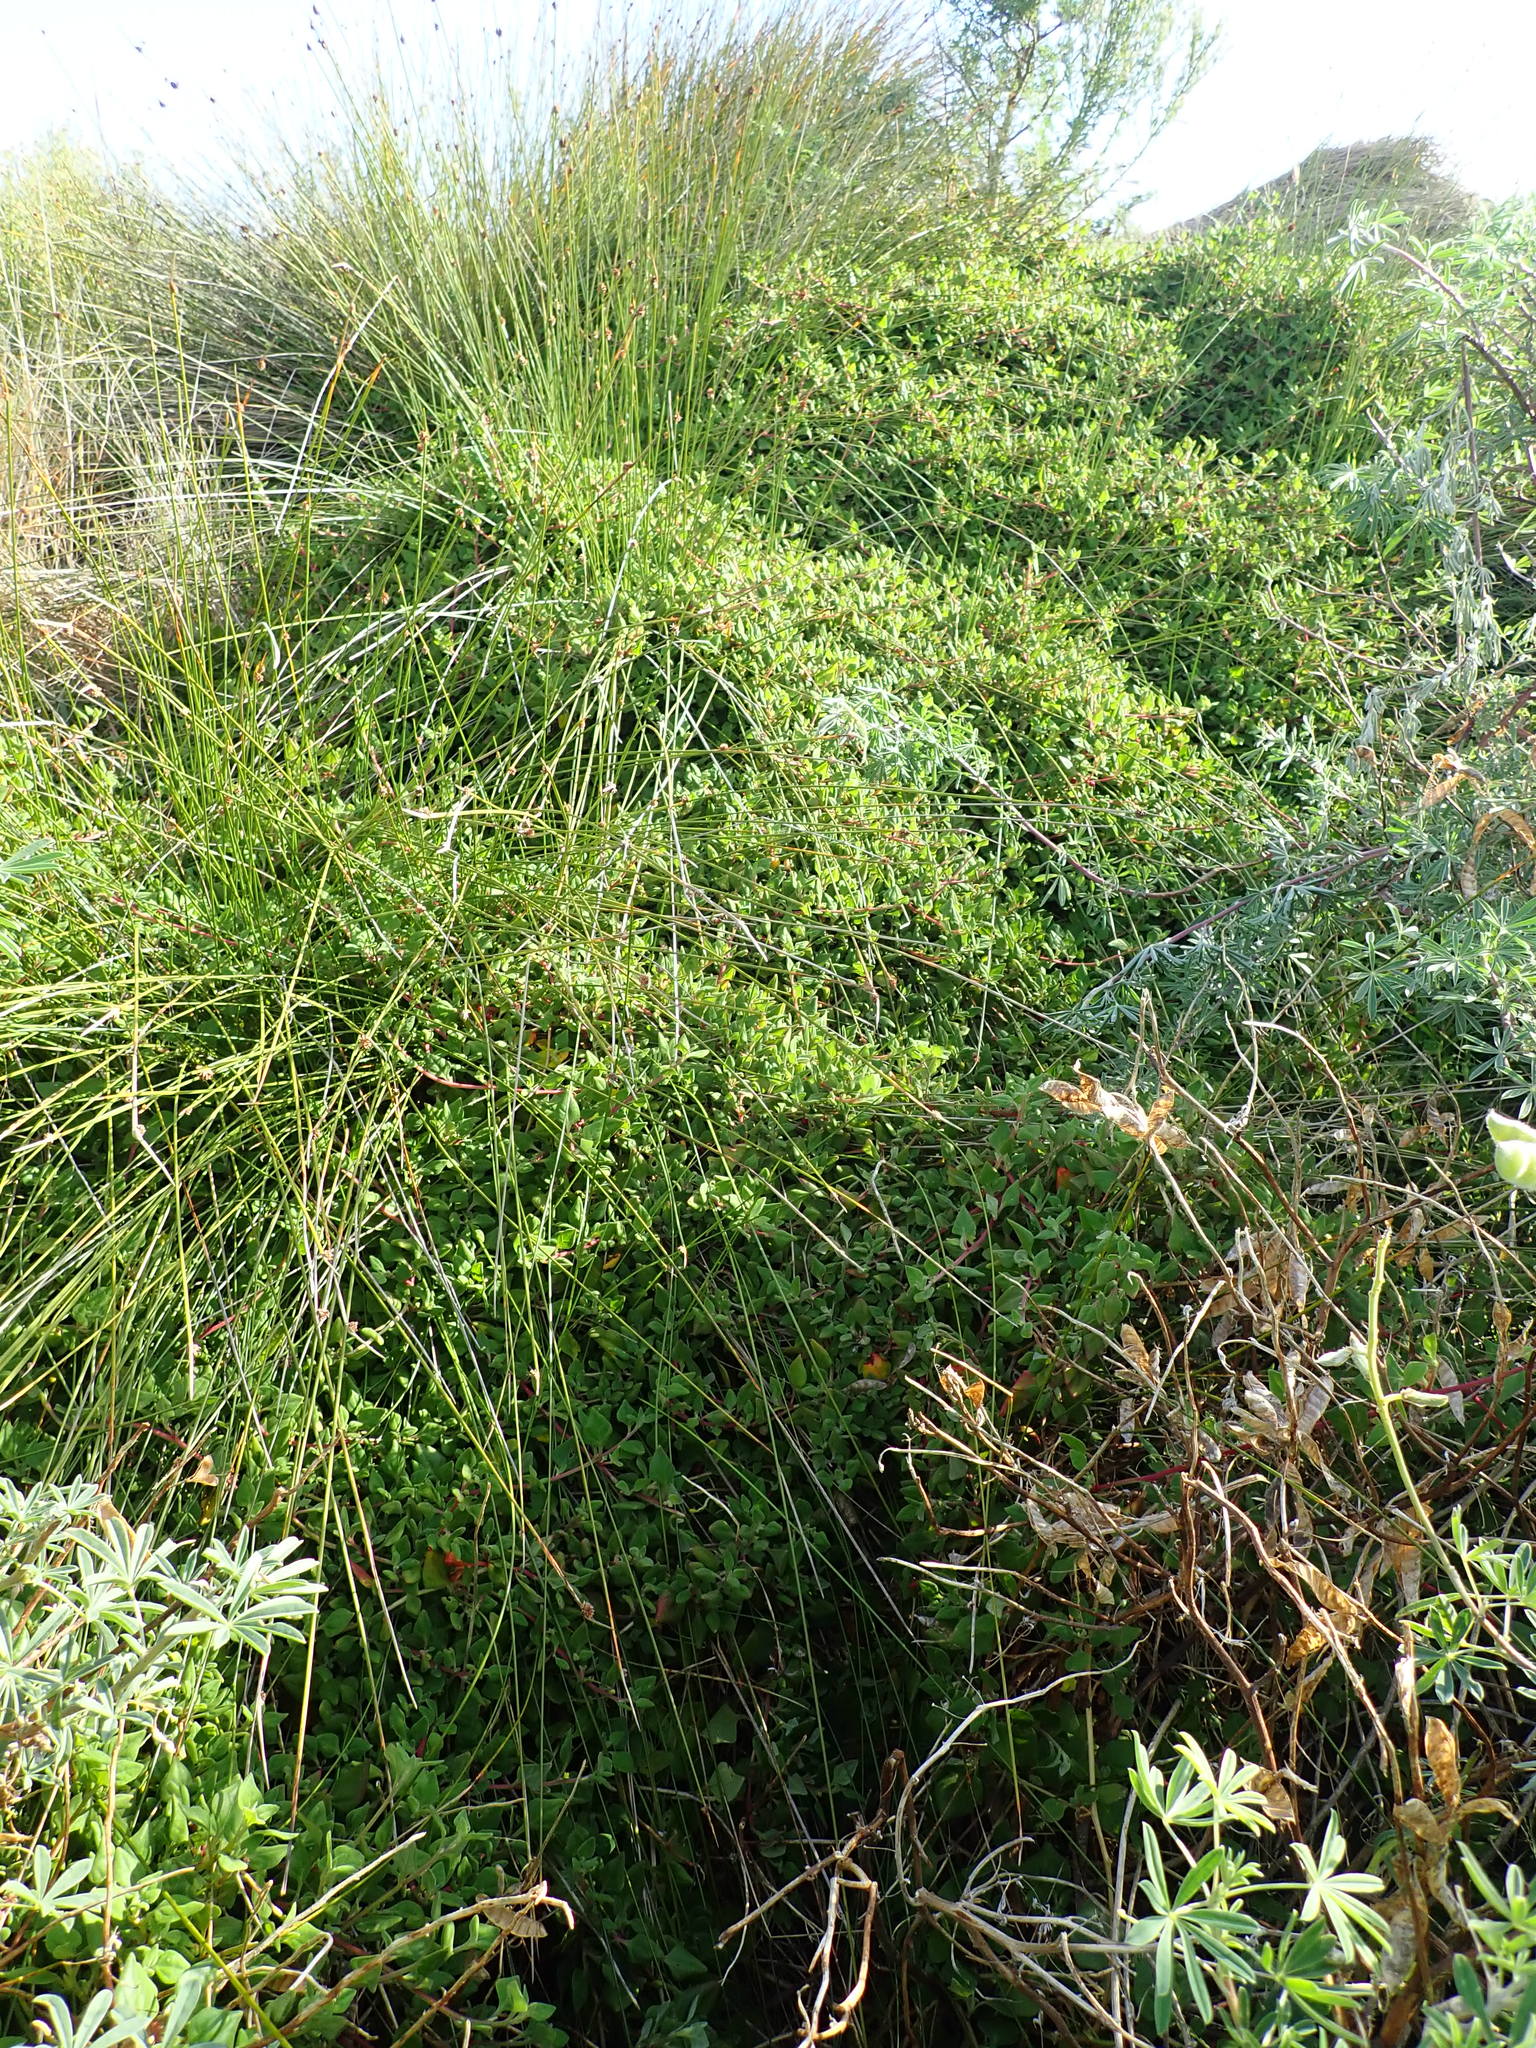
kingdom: Plantae
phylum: Tracheophyta
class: Magnoliopsida
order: Caryophyllales
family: Aizoaceae
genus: Tetragonia
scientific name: Tetragonia implexicoma
